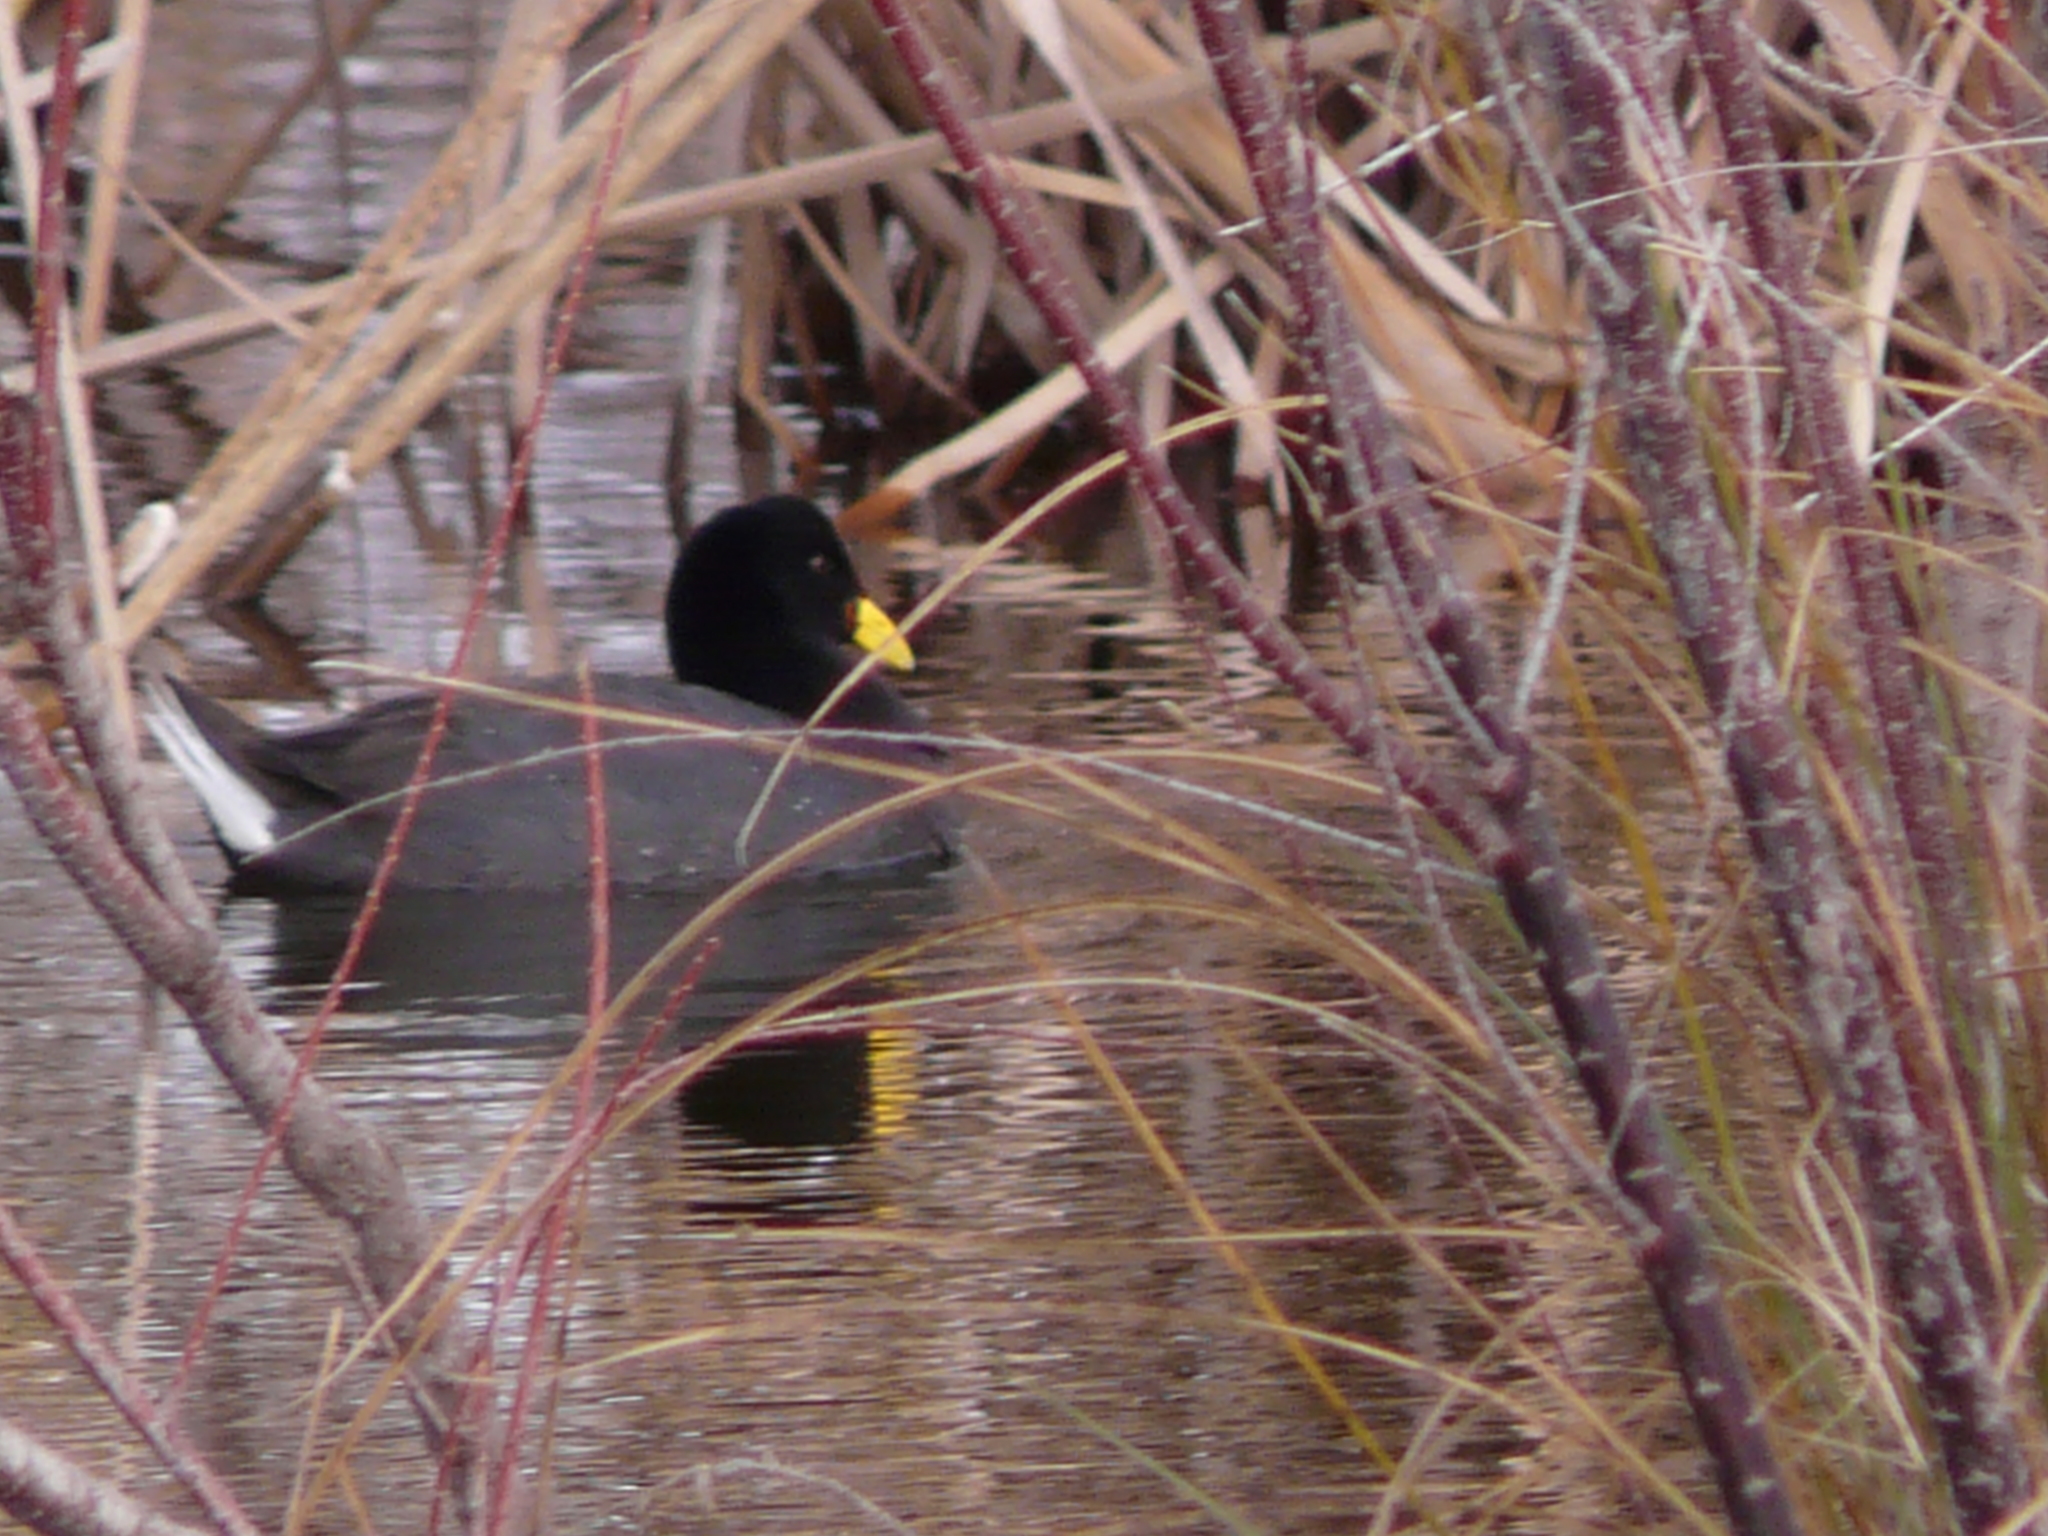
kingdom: Animalia
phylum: Chordata
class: Aves
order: Gruiformes
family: Rallidae
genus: Fulica
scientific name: Fulica rufifrons
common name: Red-fronted coot
